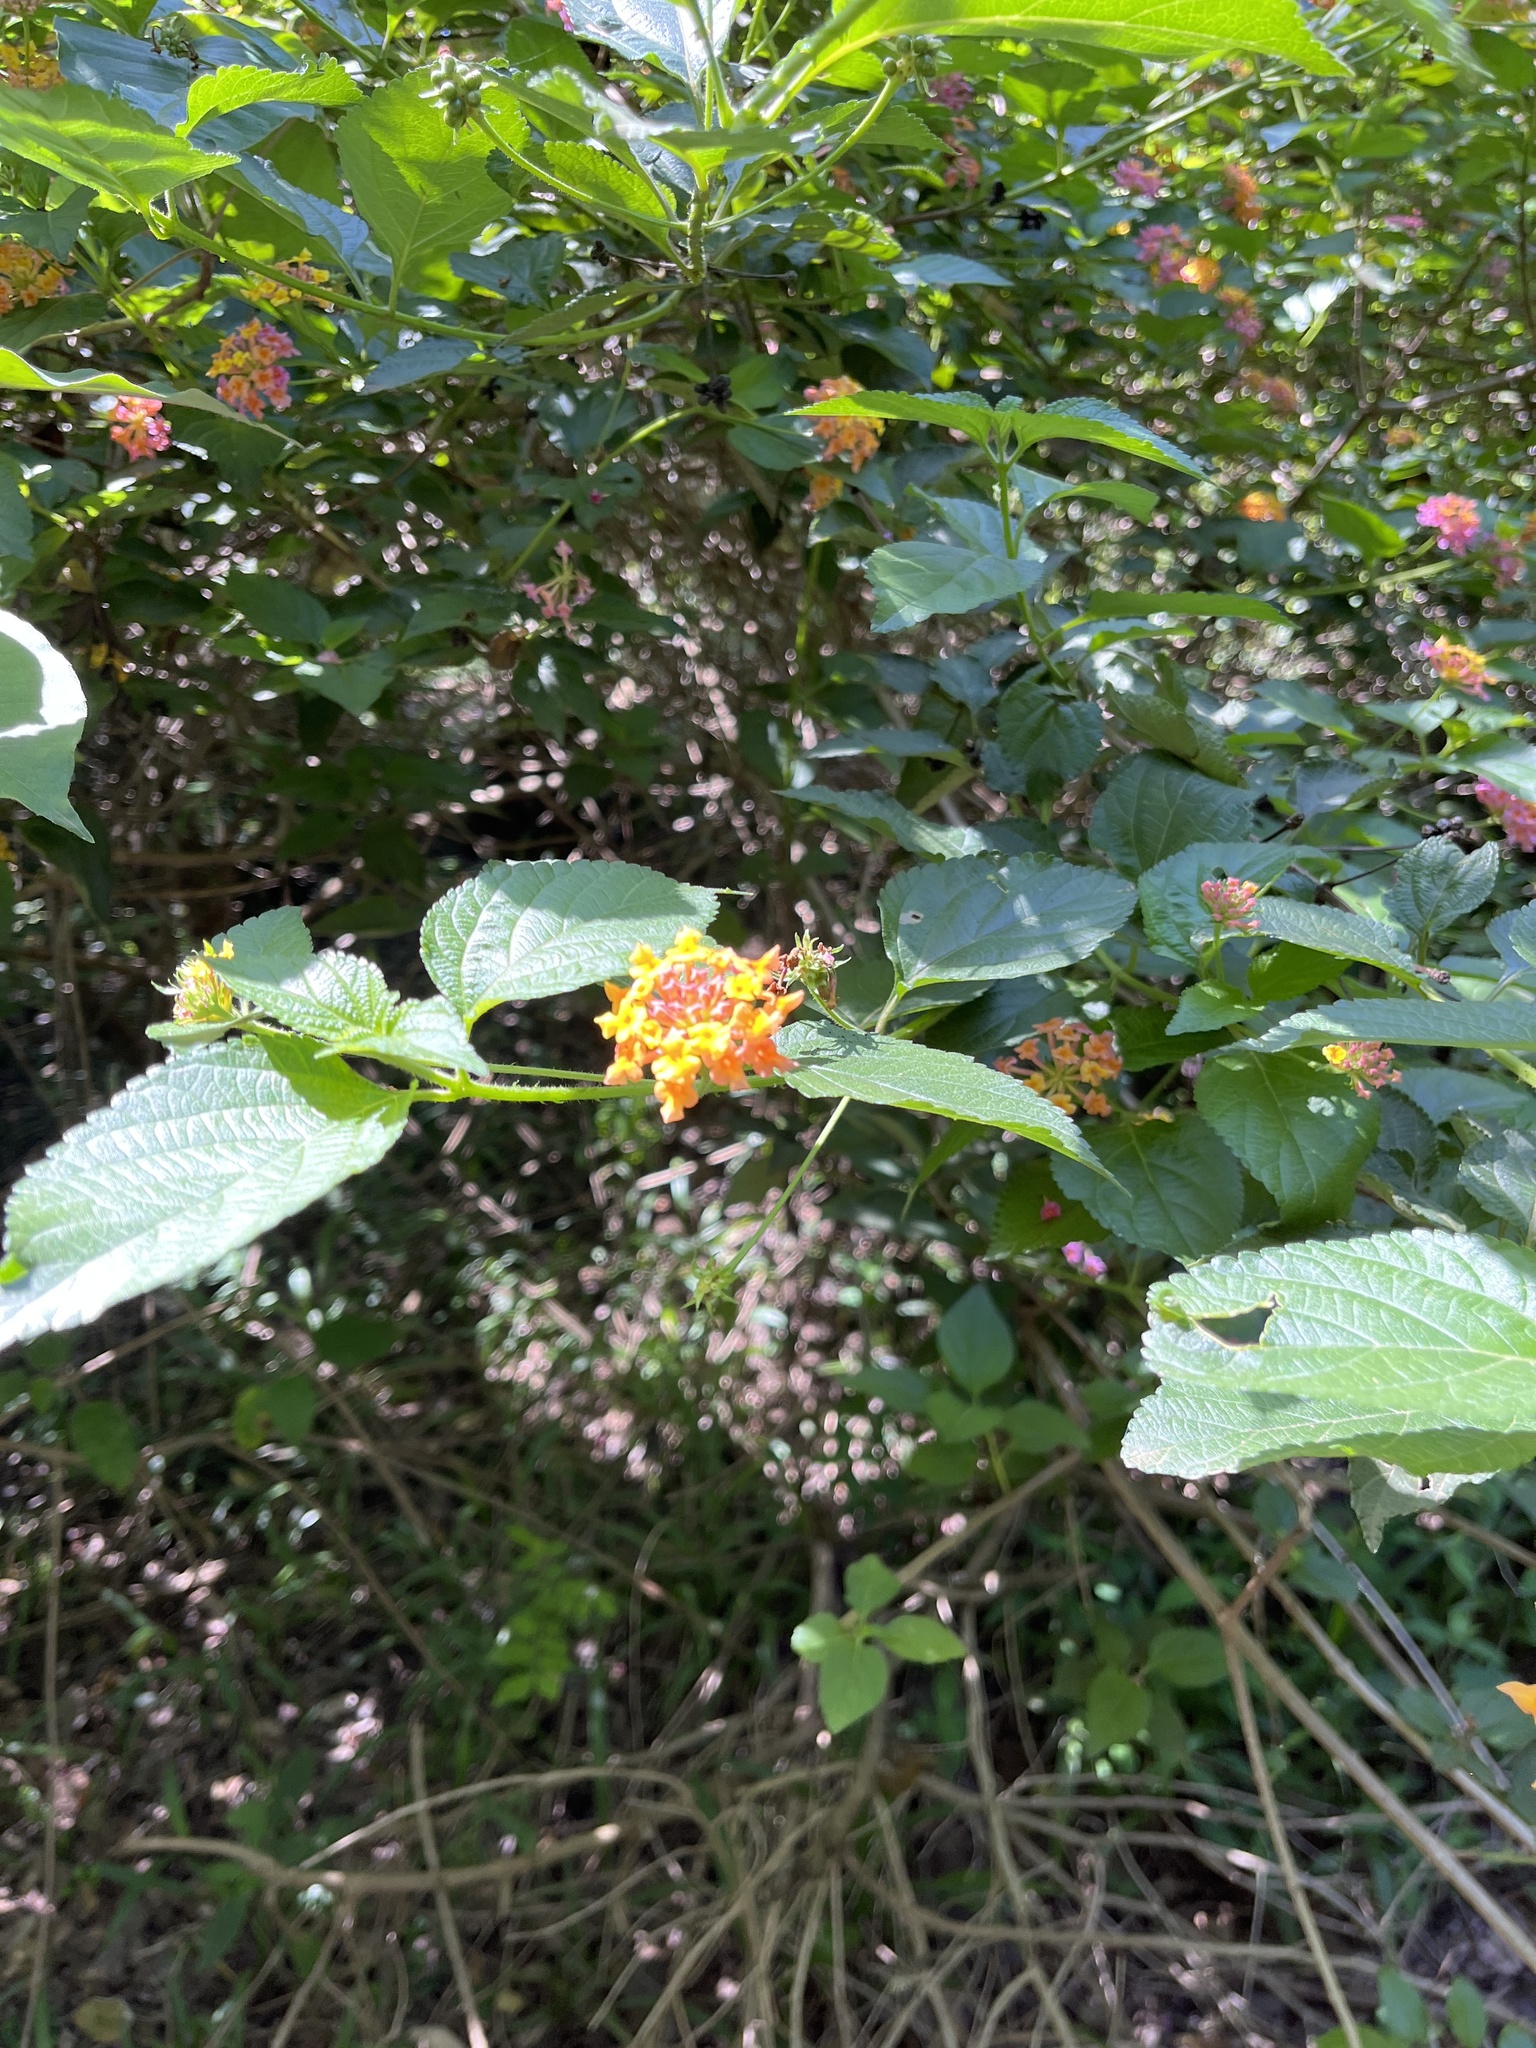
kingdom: Plantae
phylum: Tracheophyta
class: Magnoliopsida
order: Lamiales
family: Verbenaceae
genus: Lantana
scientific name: Lantana camara
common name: Lantana
